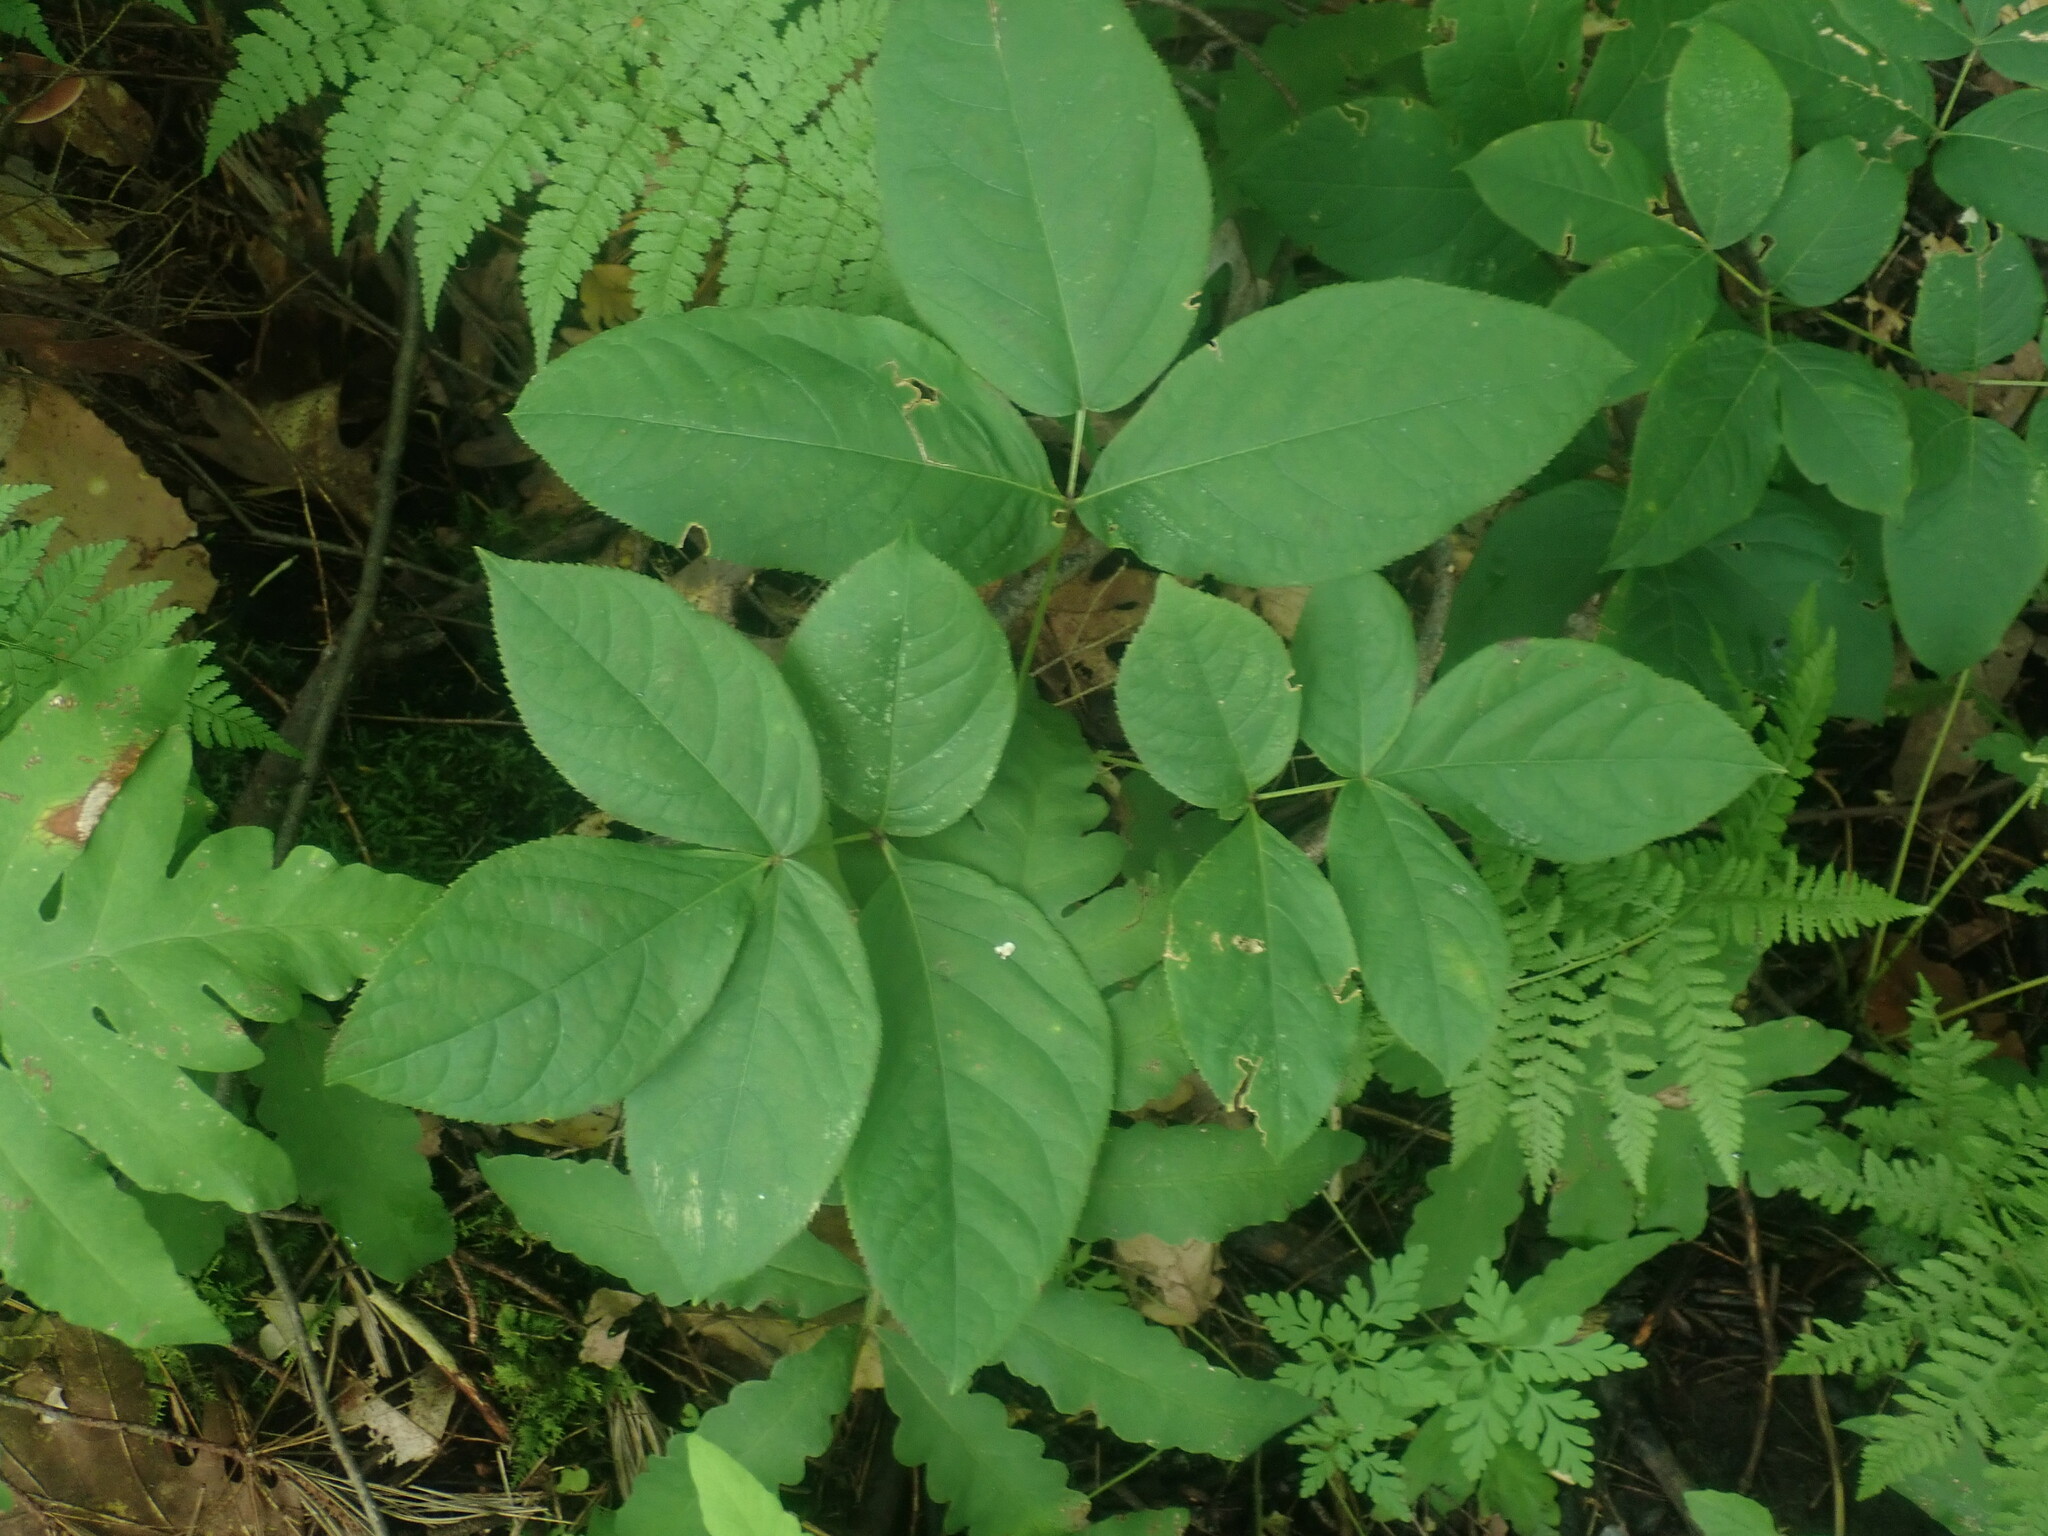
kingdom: Plantae
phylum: Tracheophyta
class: Magnoliopsida
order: Apiales
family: Araliaceae
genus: Aralia
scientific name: Aralia nudicaulis
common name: Wild sarsaparilla
